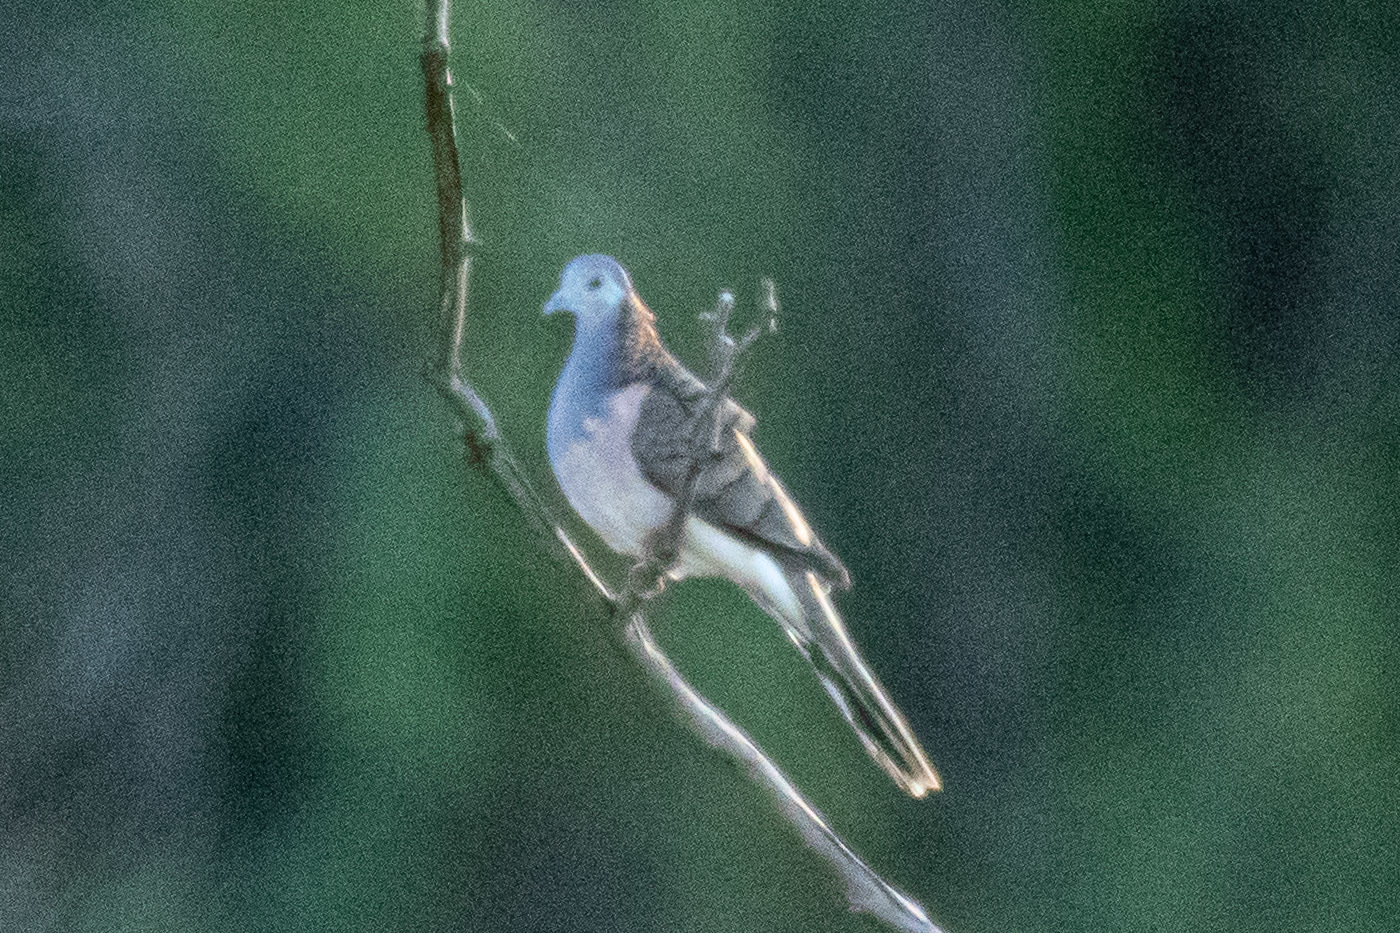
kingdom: Animalia
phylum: Chordata
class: Aves
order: Columbiformes
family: Columbidae
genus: Geopelia
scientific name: Geopelia humeralis
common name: Bar-shouldered dove
